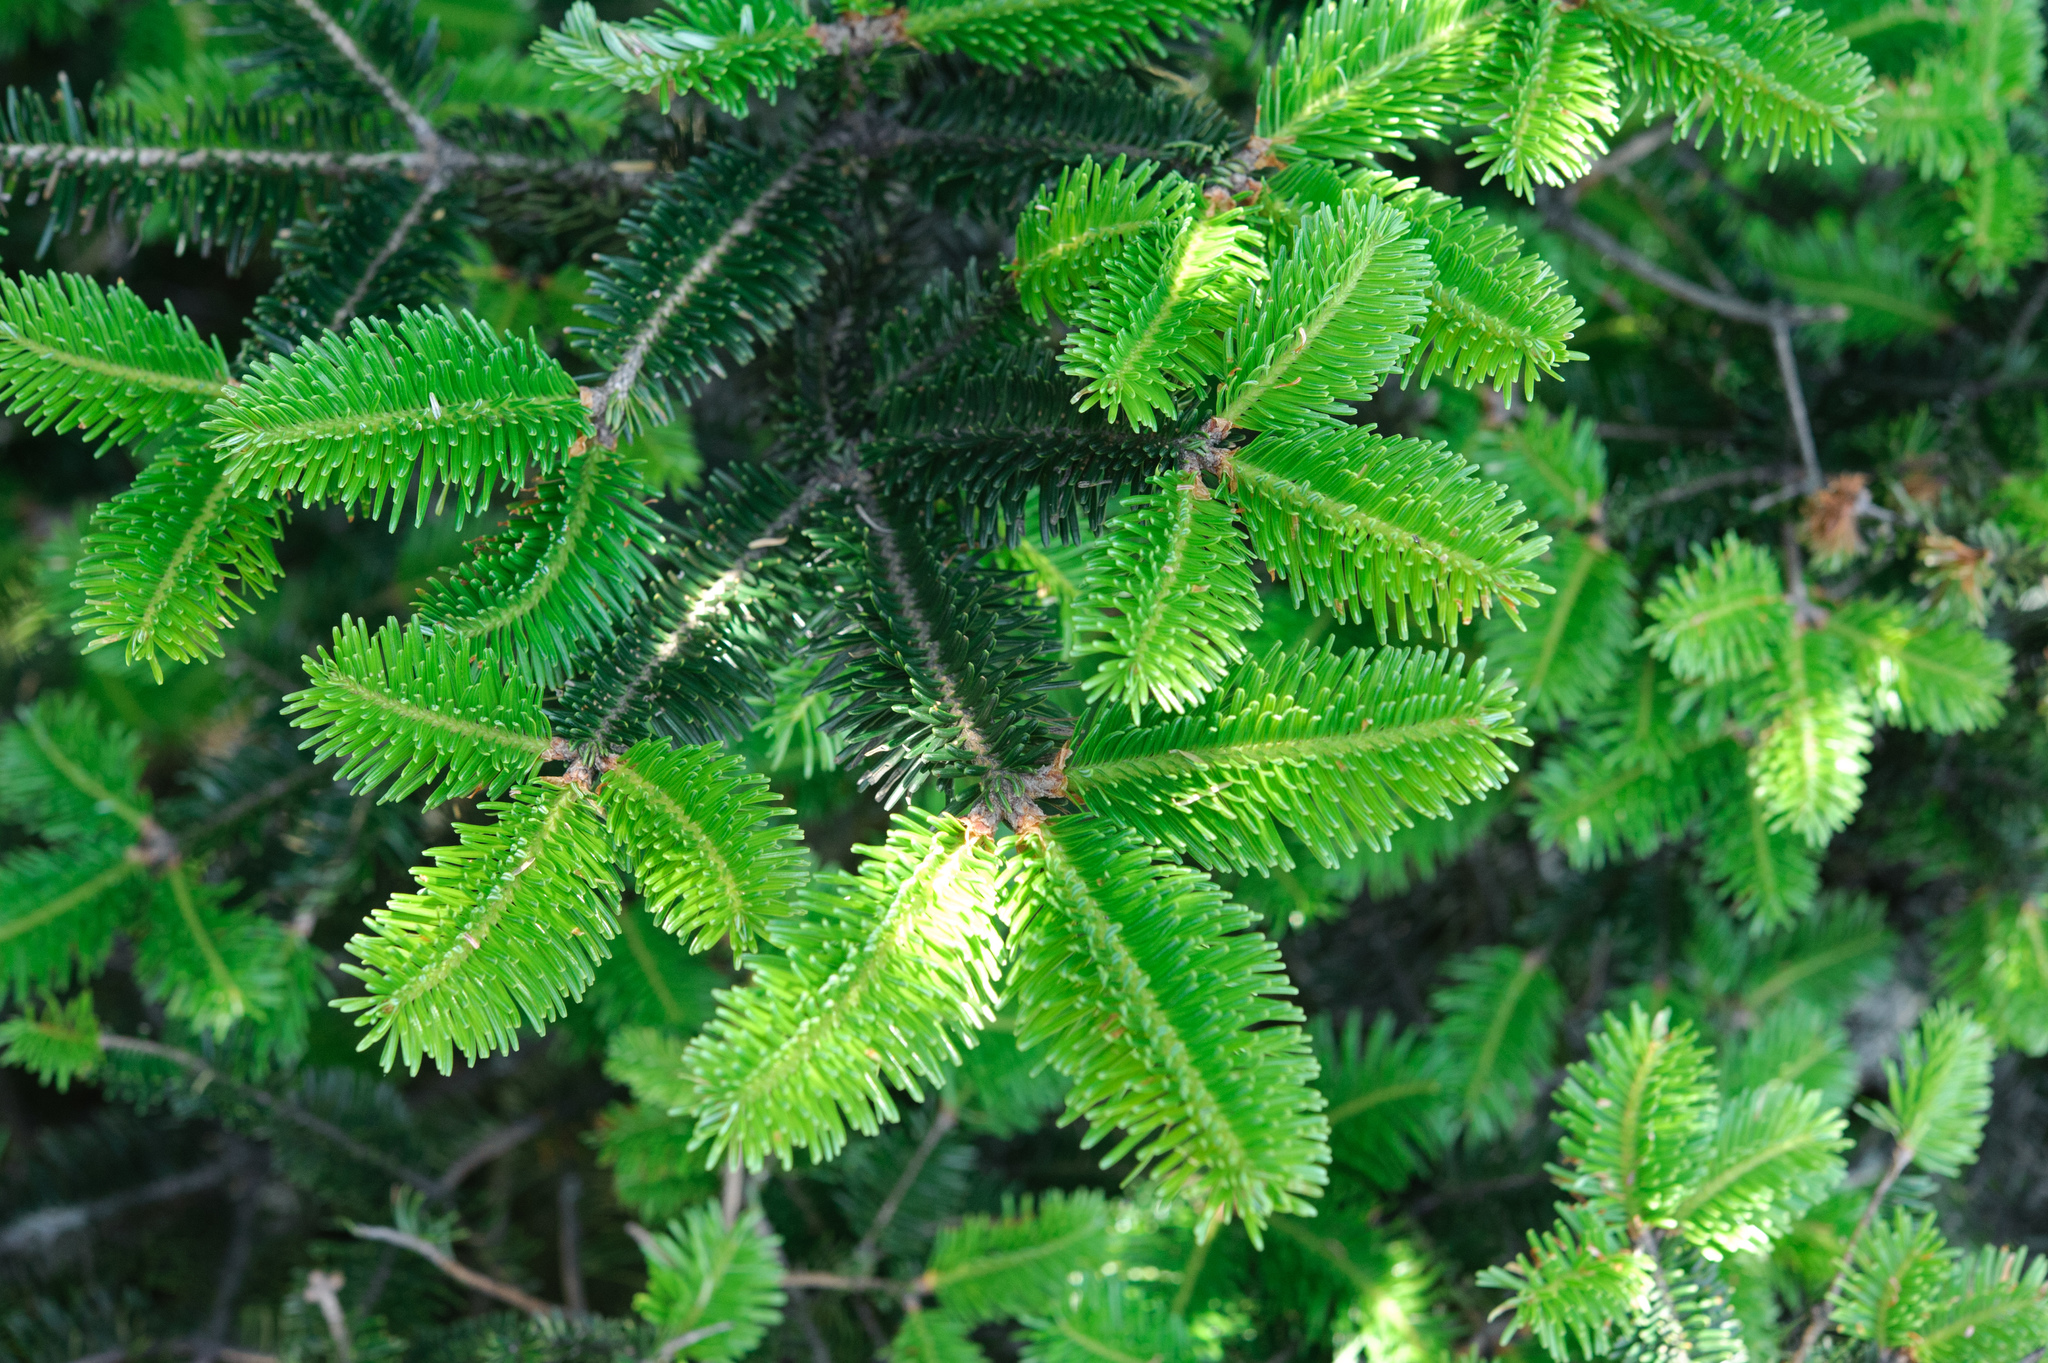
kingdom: Plantae
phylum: Tracheophyta
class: Pinopsida
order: Pinales
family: Pinaceae
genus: Abies
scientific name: Abies kawakamii
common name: Taiwan fir
